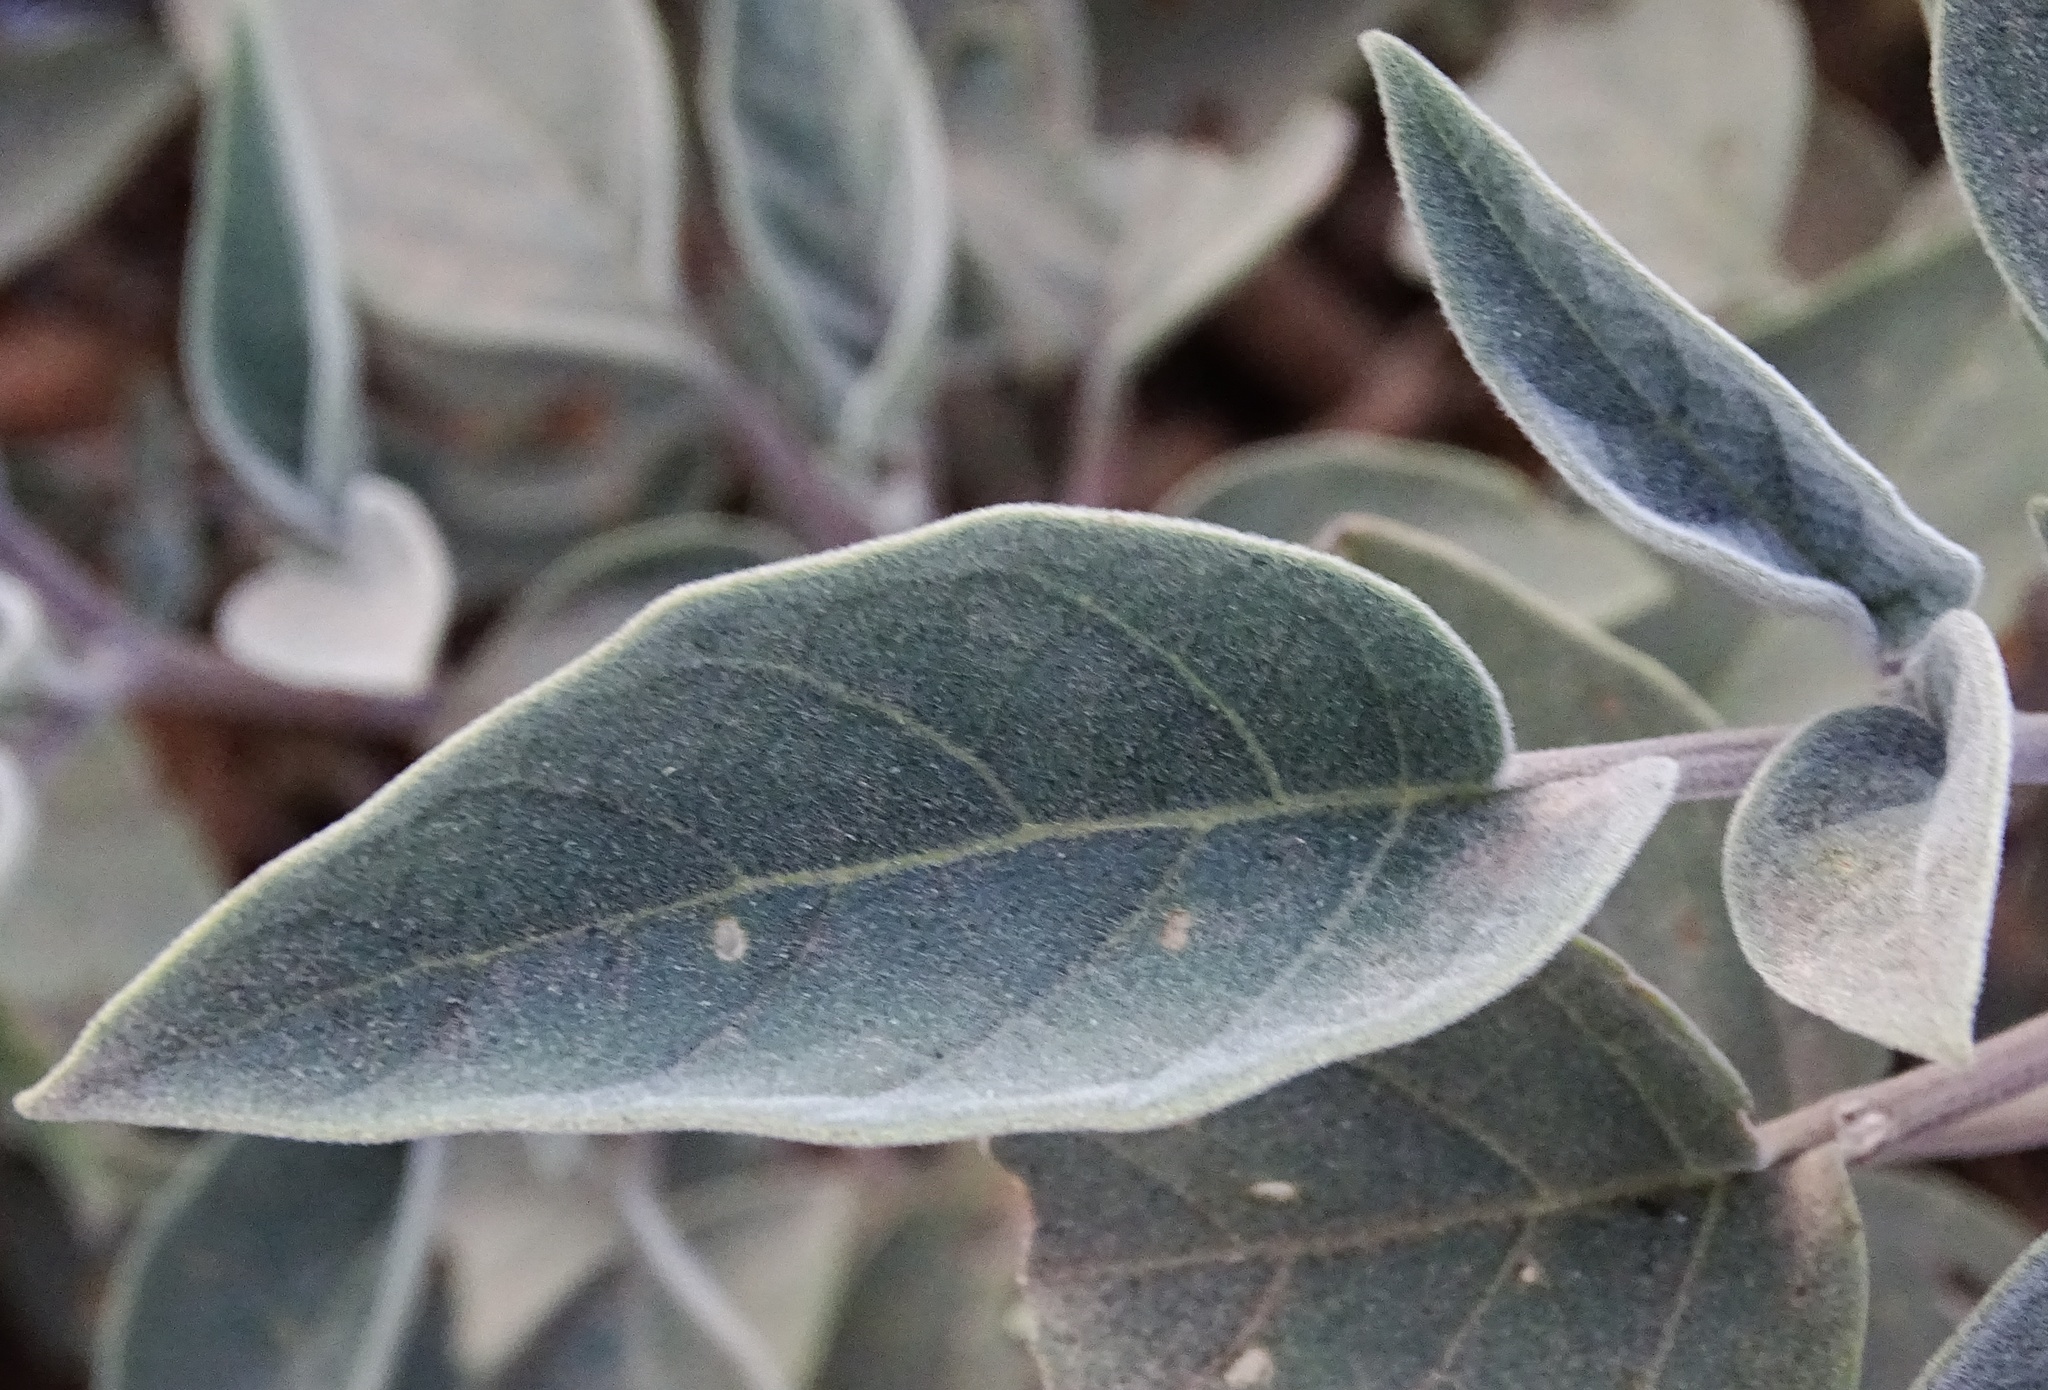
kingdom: Plantae
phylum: Tracheophyta
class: Magnoliopsida
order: Solanales
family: Solanaceae
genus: Datura
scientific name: Datura wrightii
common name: Sacred thorn-apple
